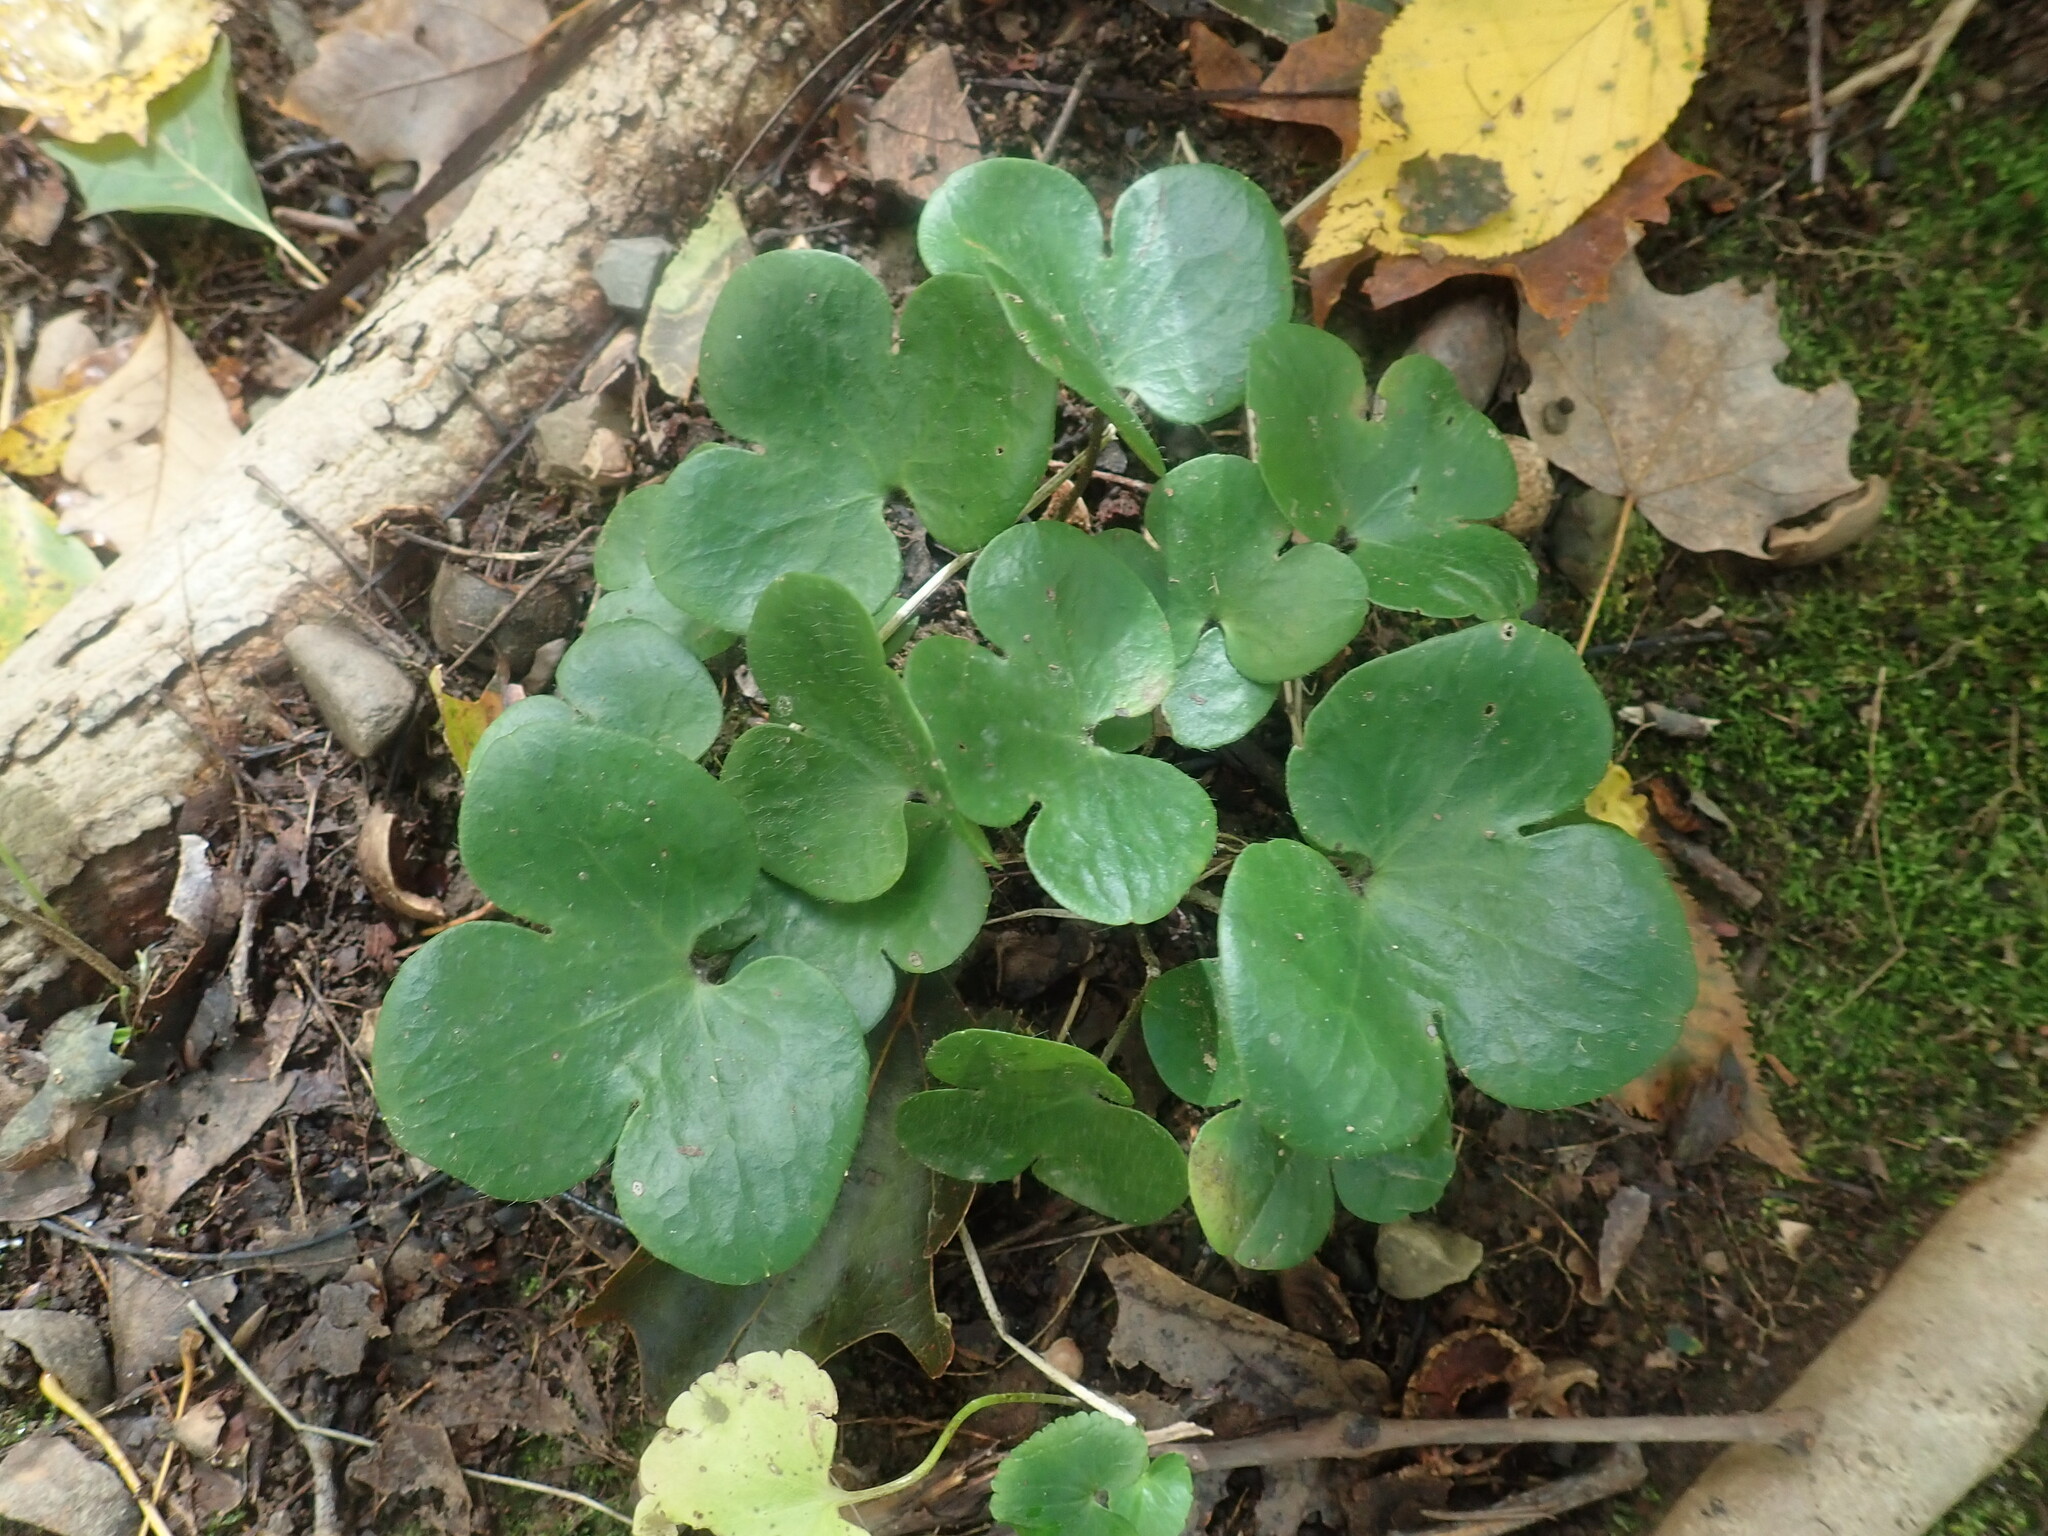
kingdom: Plantae
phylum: Tracheophyta
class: Magnoliopsida
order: Ranunculales
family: Ranunculaceae
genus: Hepatica
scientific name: Hepatica americana
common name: American hepatica
